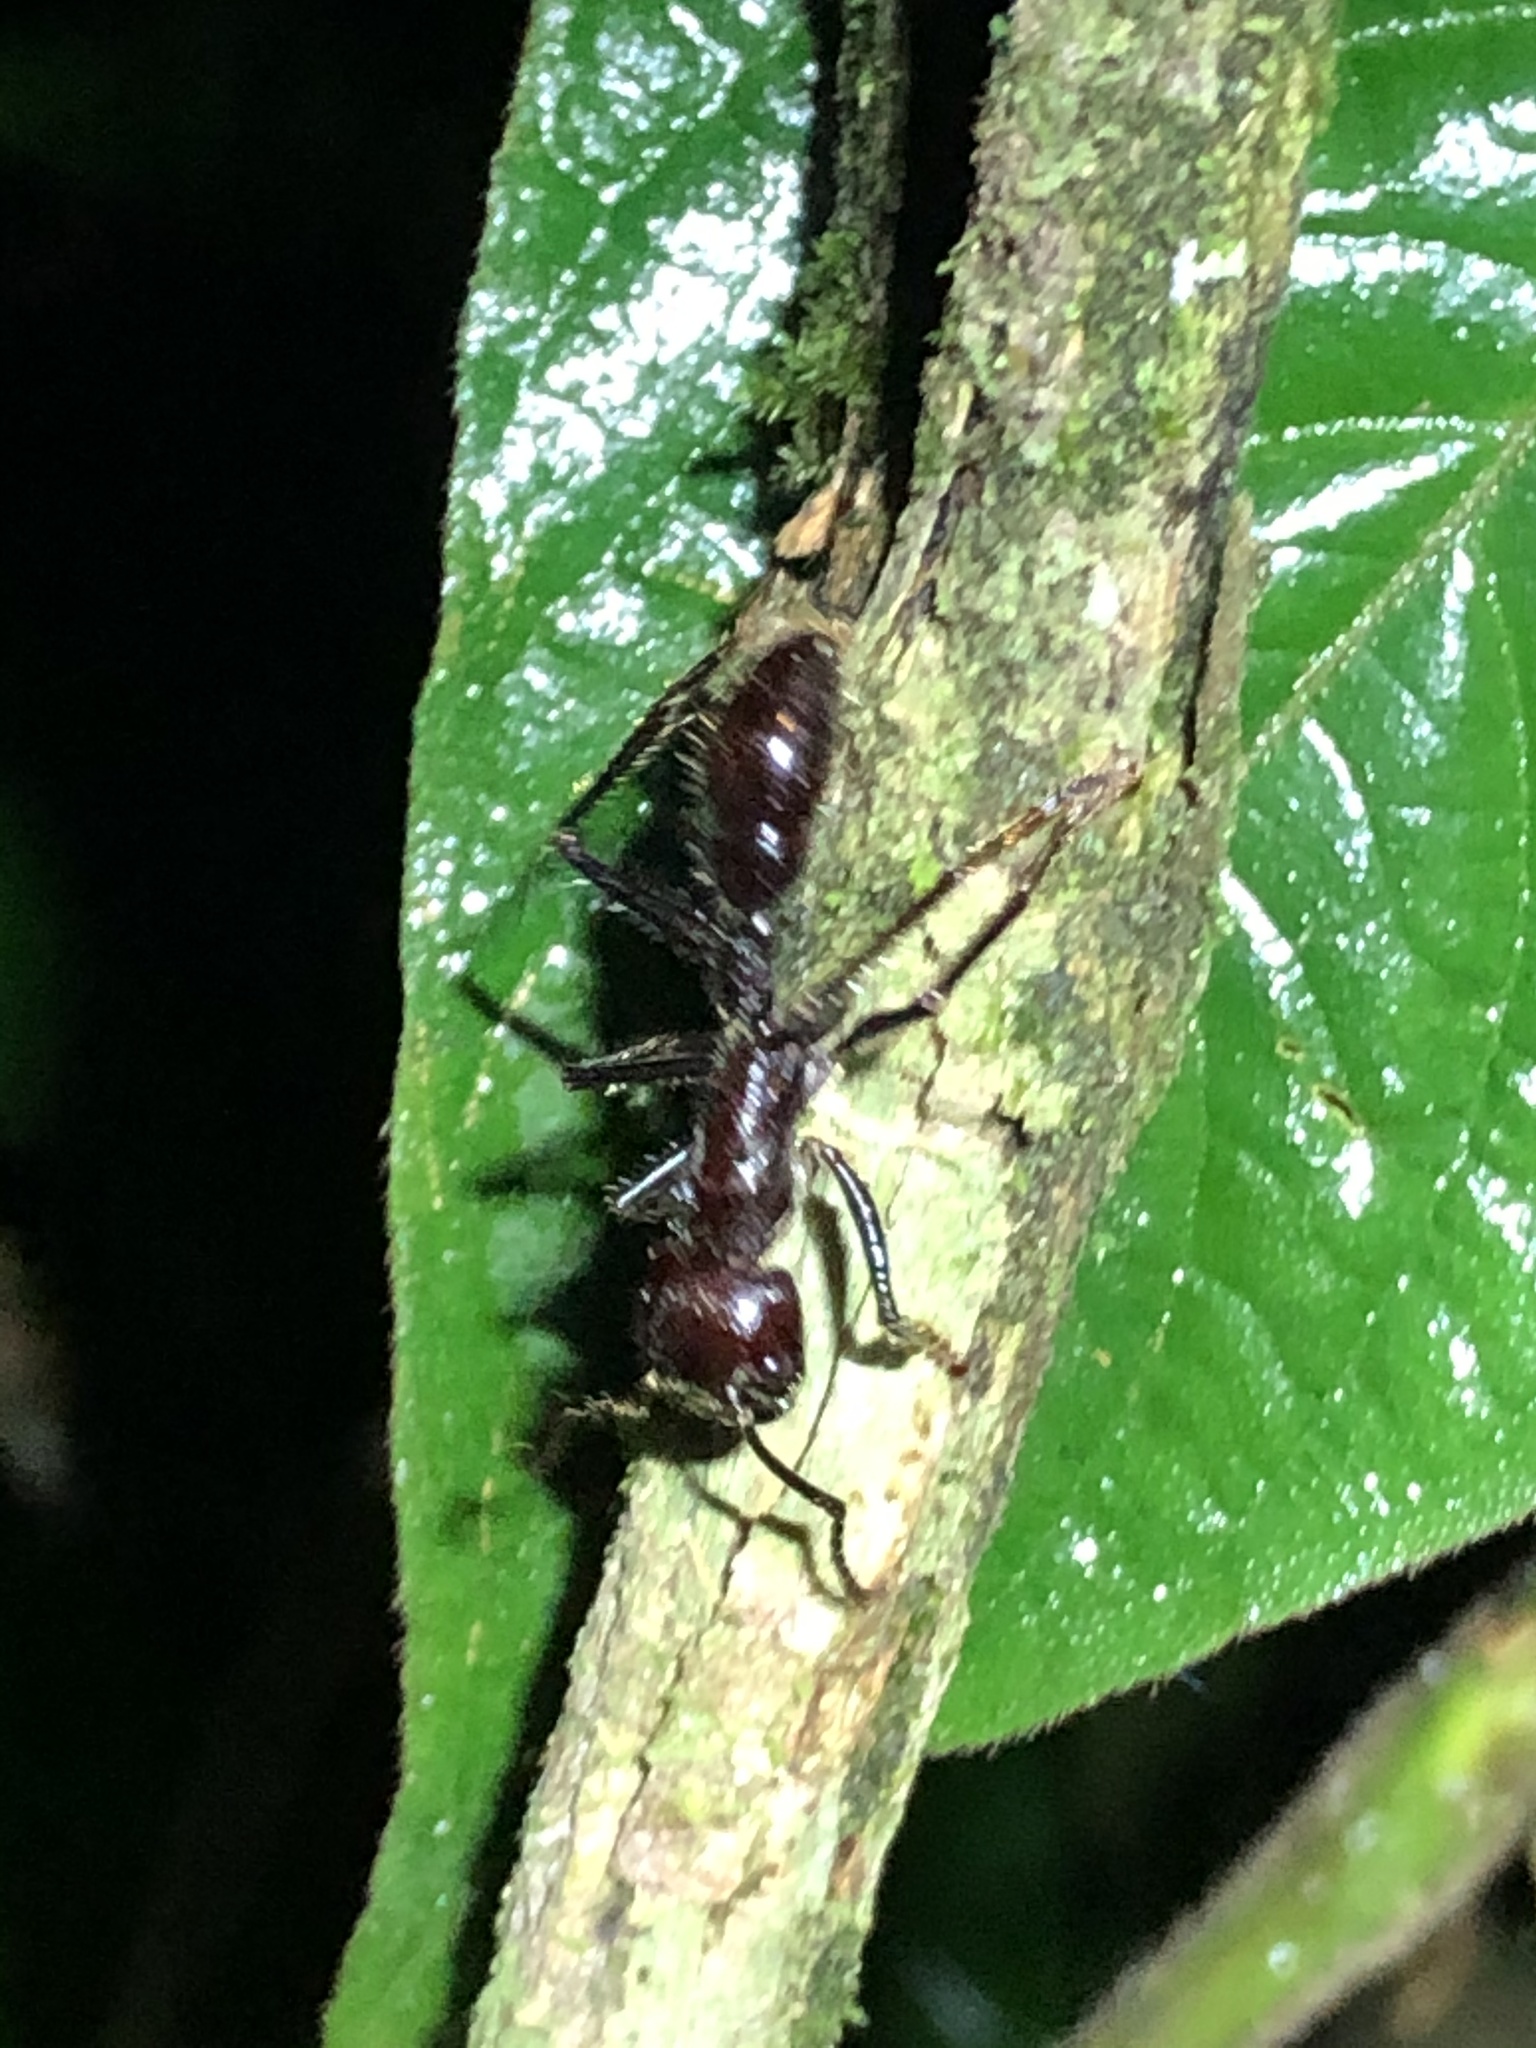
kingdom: Animalia
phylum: Arthropoda
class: Insecta
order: Hymenoptera
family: Formicidae
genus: Paraponera
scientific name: Paraponera clavata
